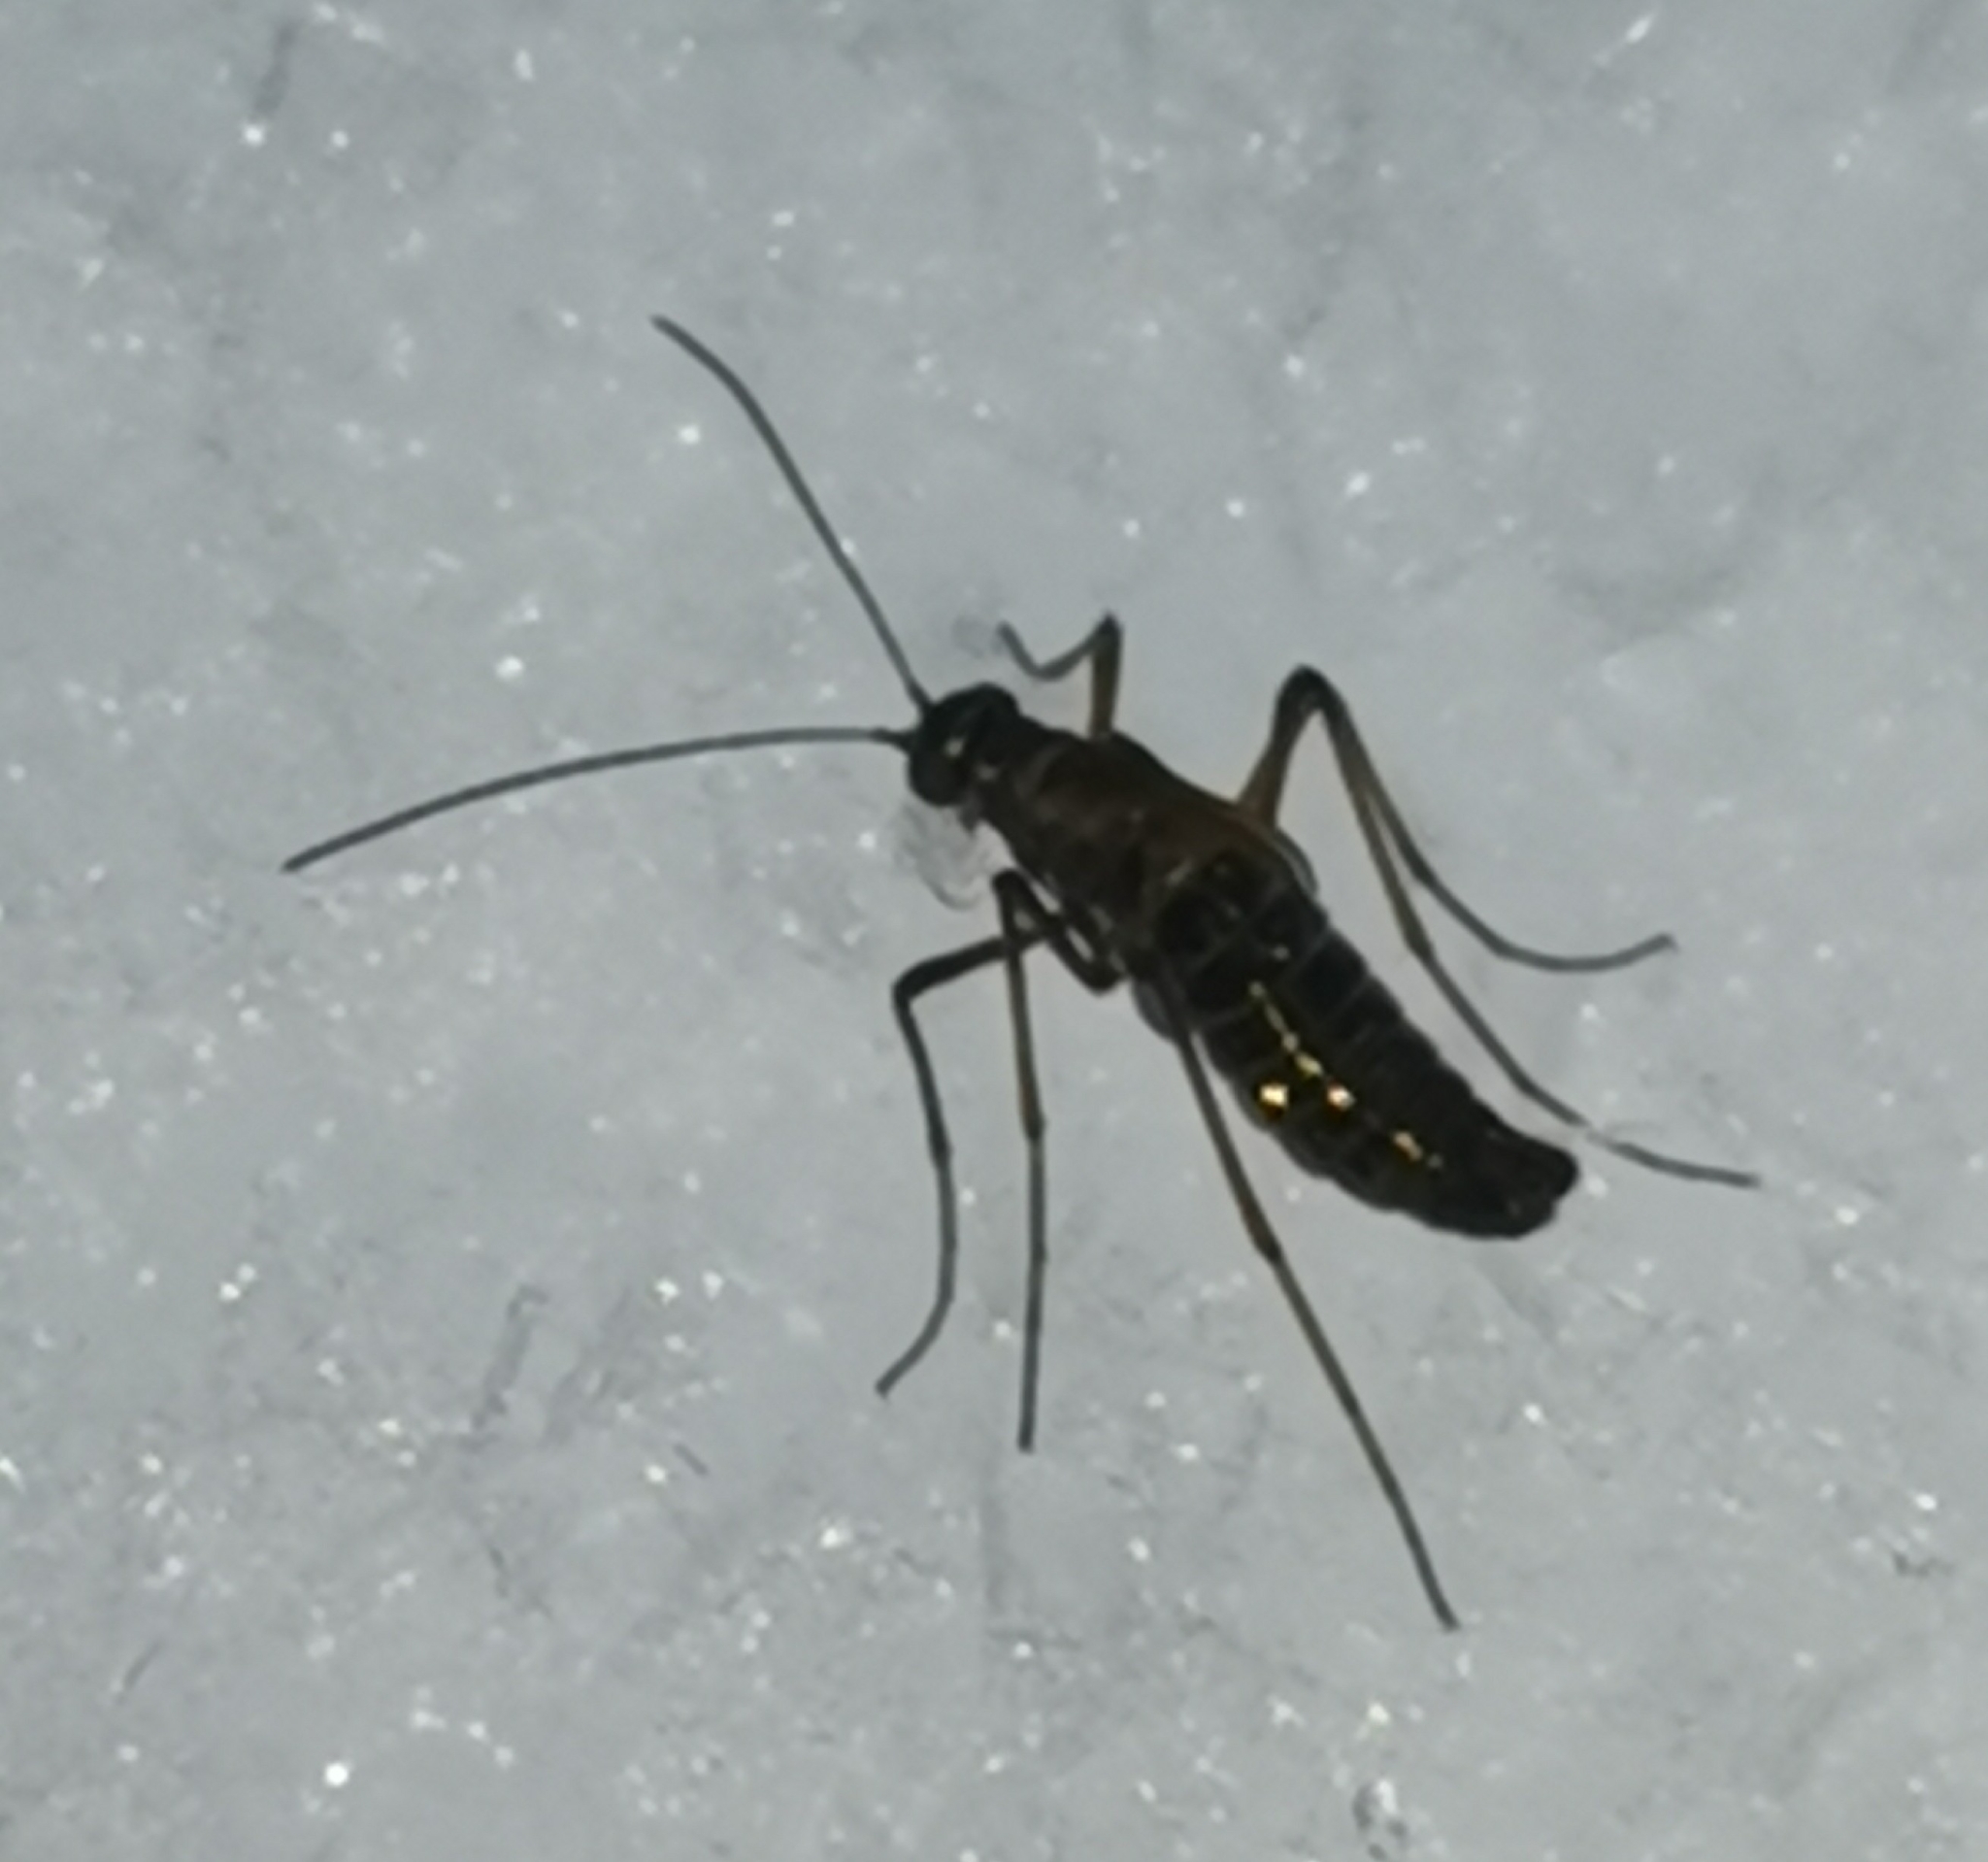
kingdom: Animalia
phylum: Arthropoda
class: Insecta
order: Mecoptera
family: Boreidae
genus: Boreus
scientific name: Boreus westwoodi
